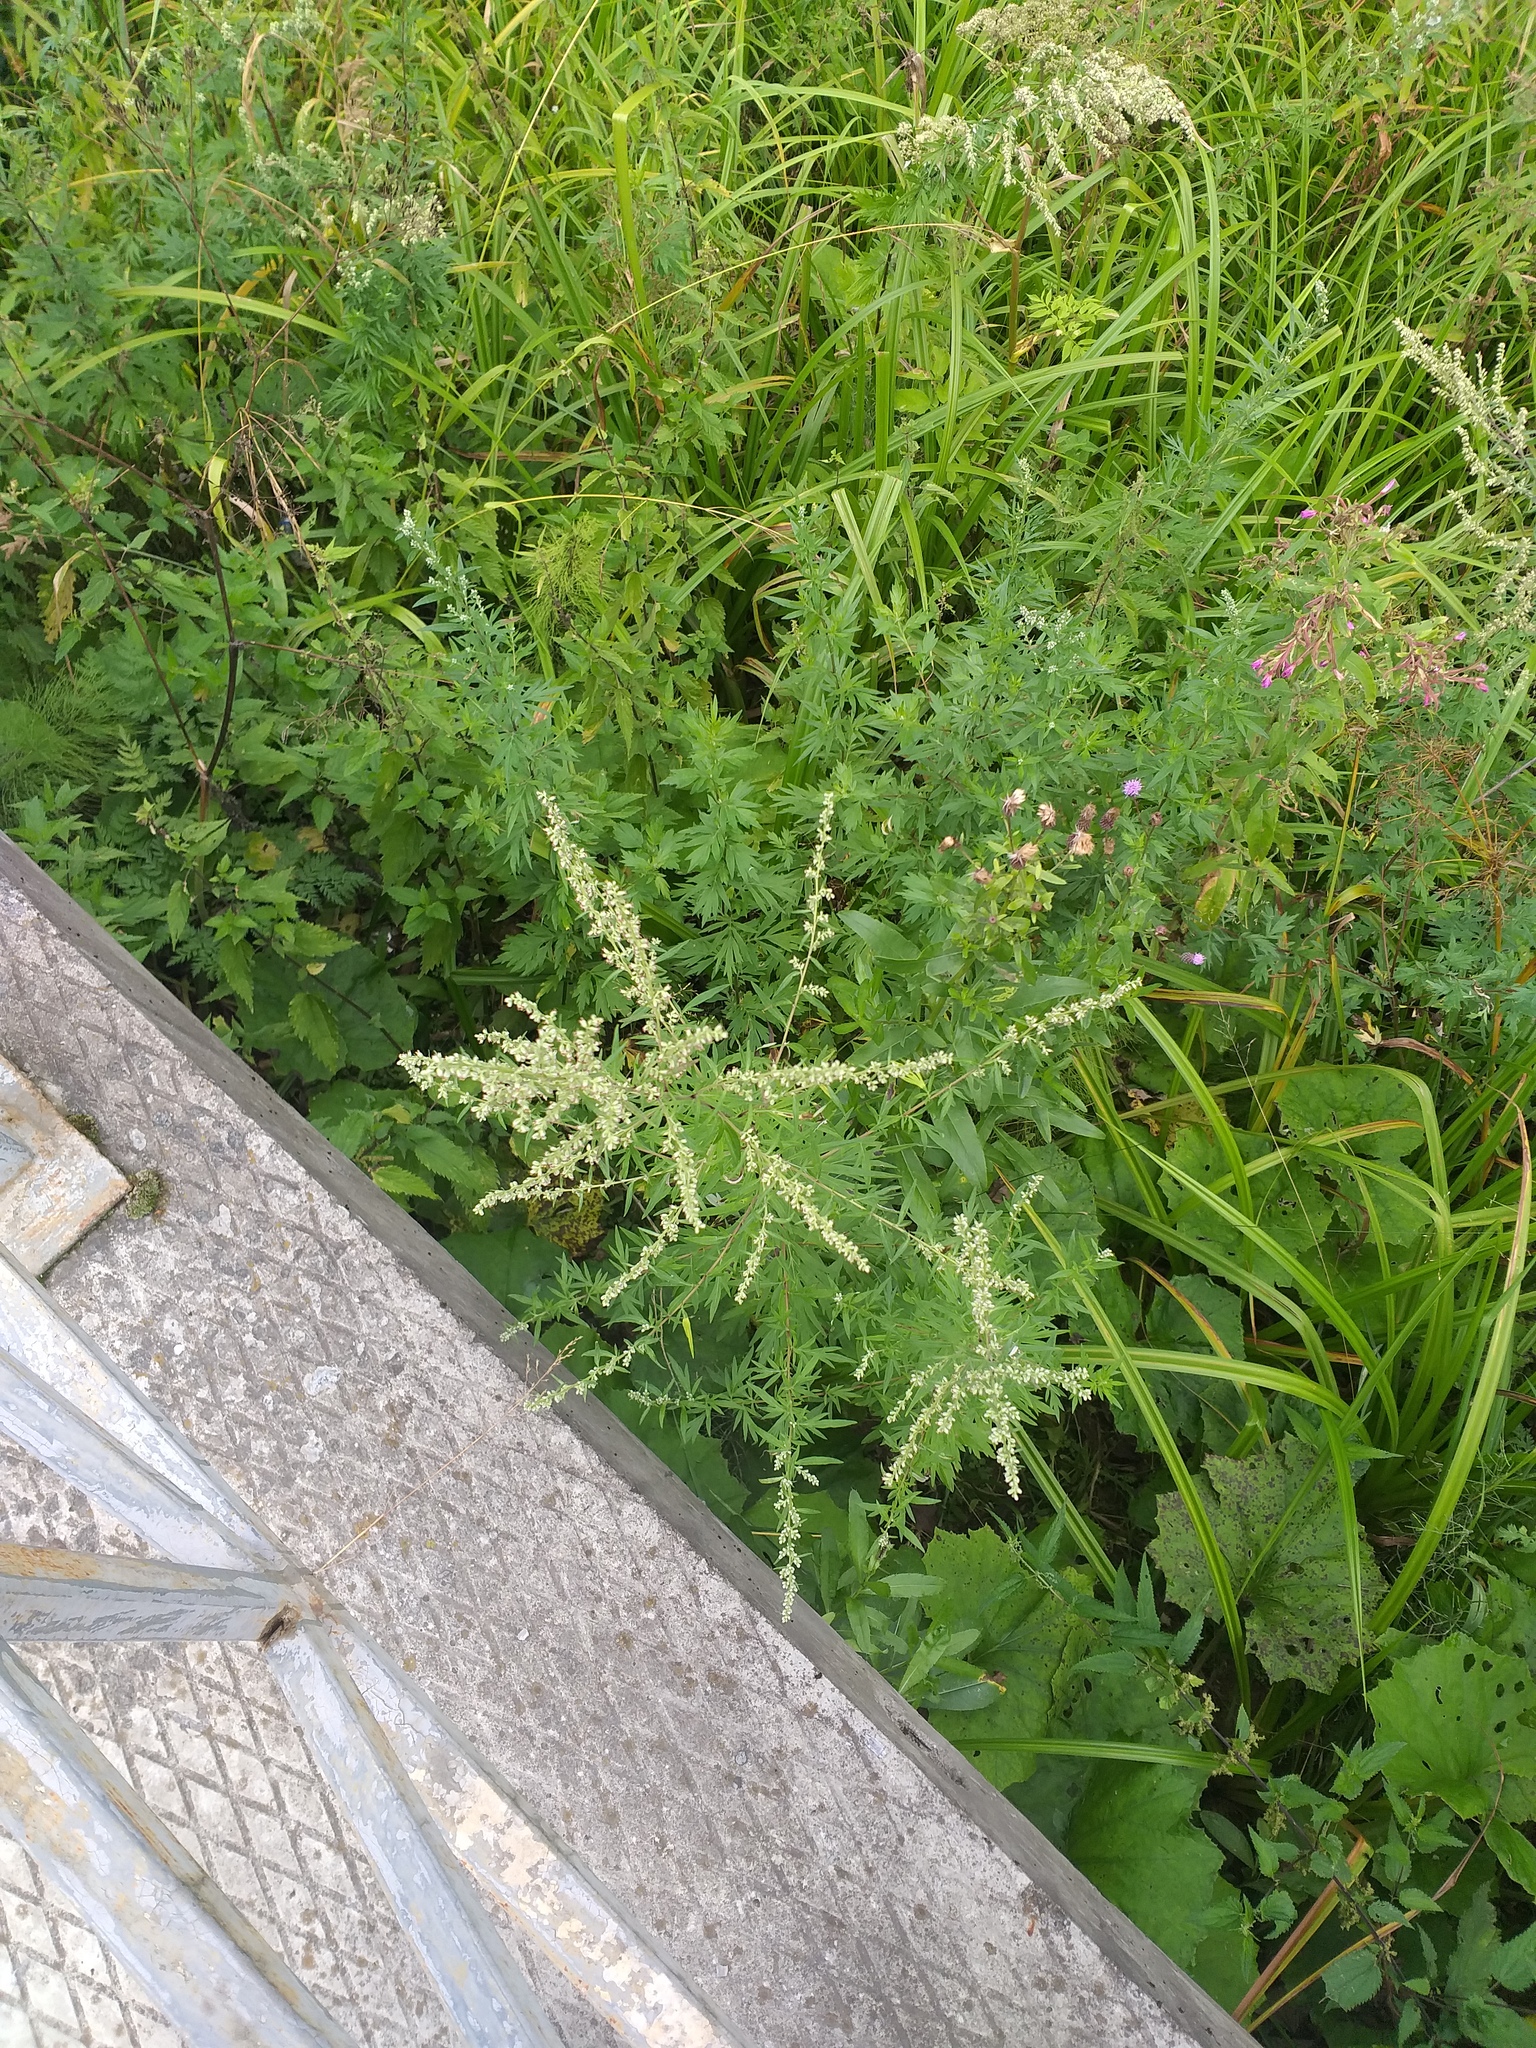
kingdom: Plantae
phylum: Tracheophyta
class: Magnoliopsida
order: Asterales
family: Asteraceae
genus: Artemisia
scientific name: Artemisia vulgaris
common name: Mugwort
